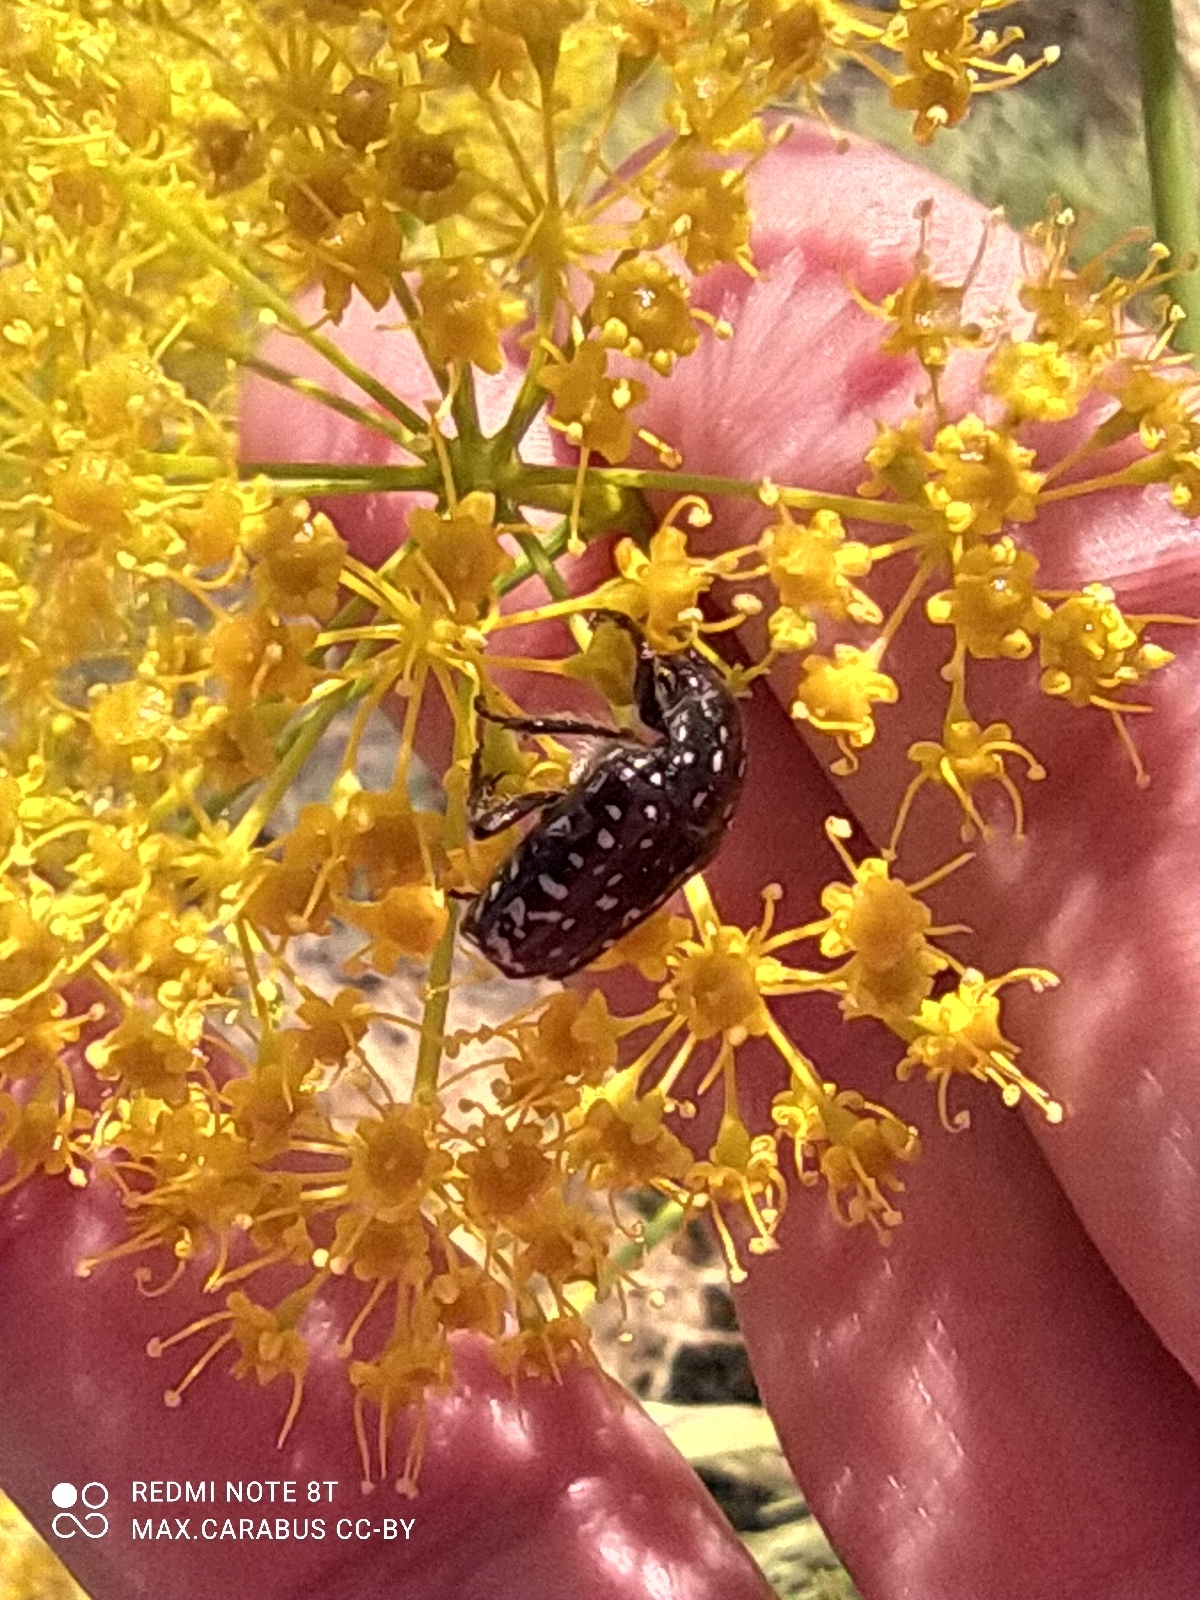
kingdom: Animalia
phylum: Arthropoda
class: Insecta
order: Coleoptera
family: Scarabaeidae
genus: Oxythyrea
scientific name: Oxythyrea funesta
